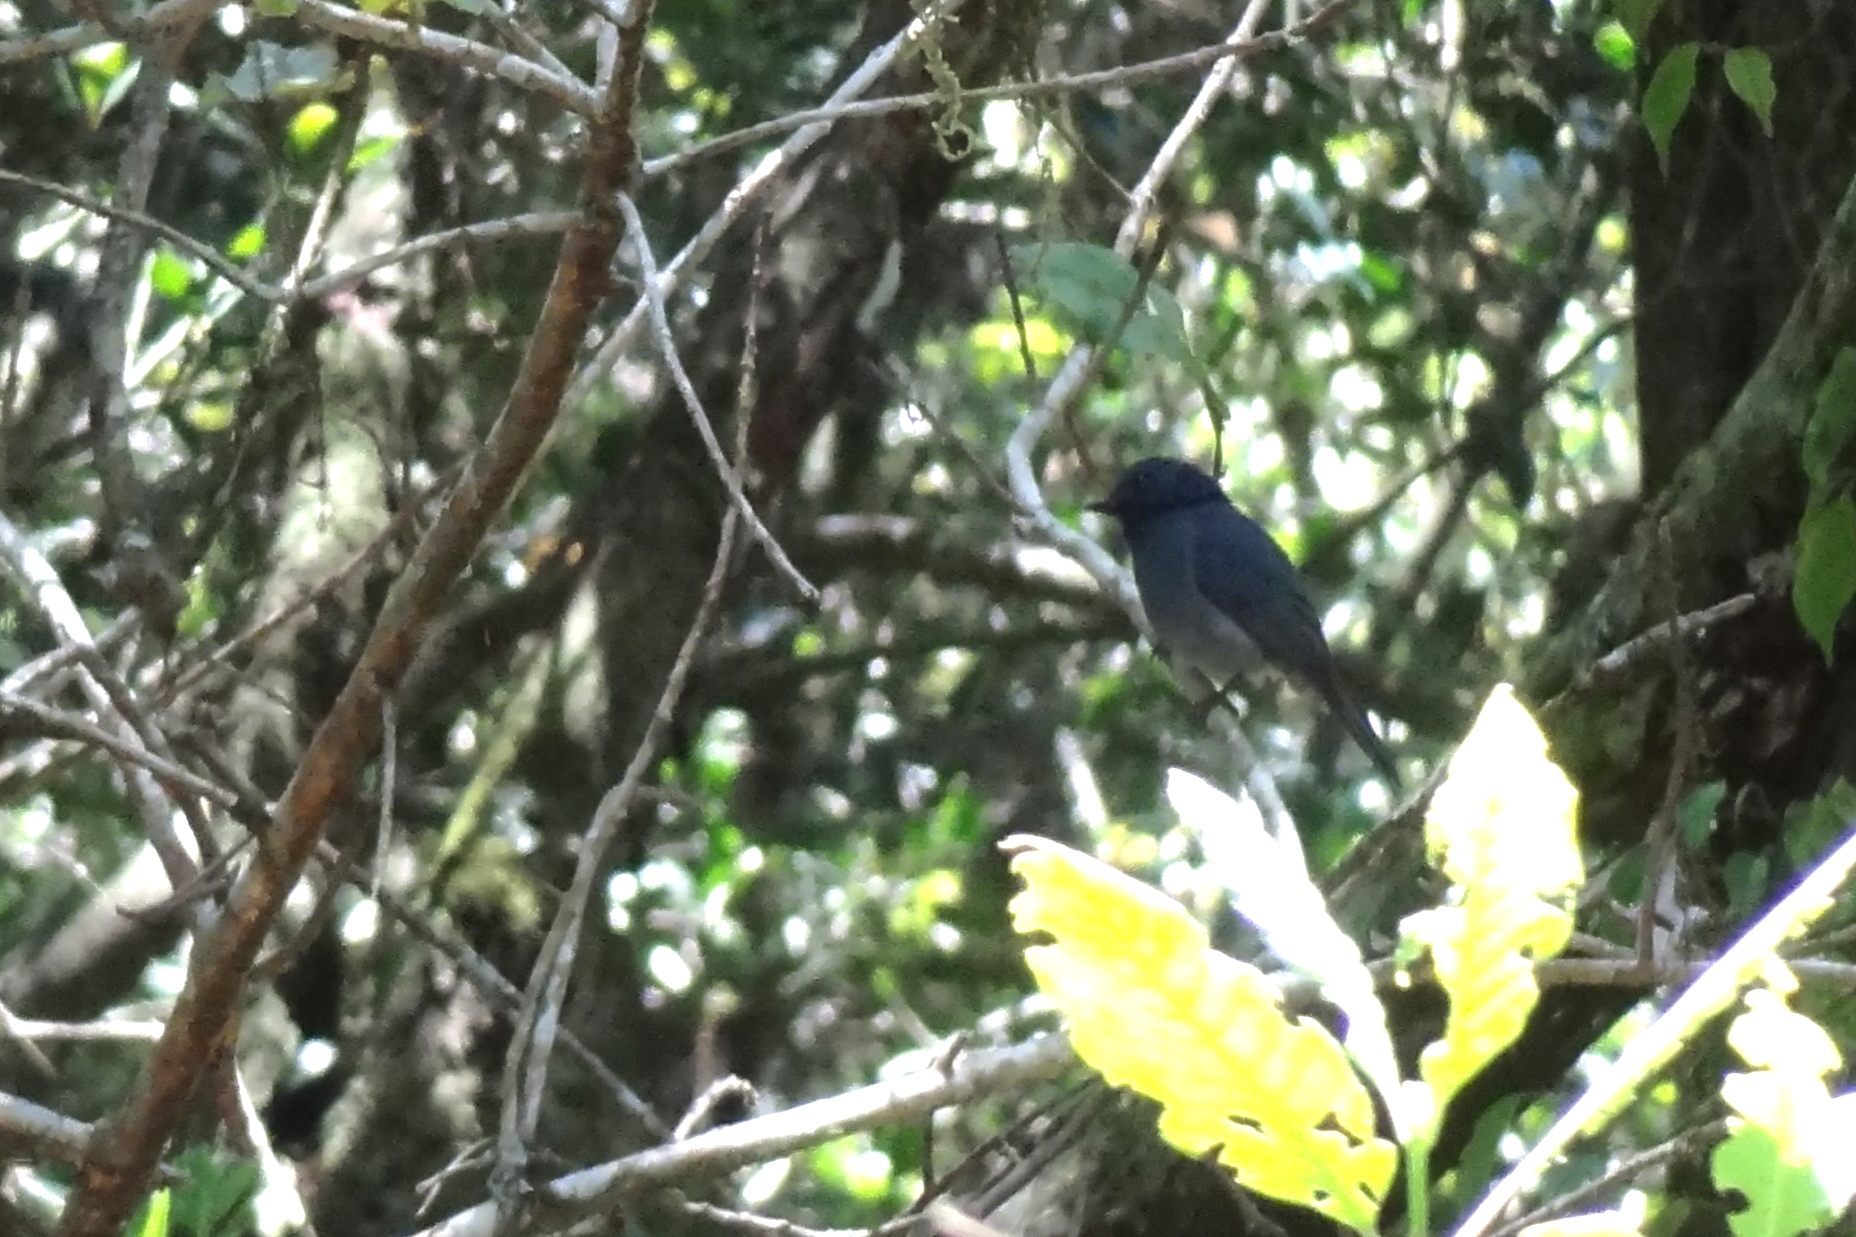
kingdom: Animalia
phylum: Chordata
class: Aves
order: Passeriformes
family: Muscicapidae
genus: Eumyias
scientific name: Eumyias albicaudatus
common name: Nilgiri flycatcher
